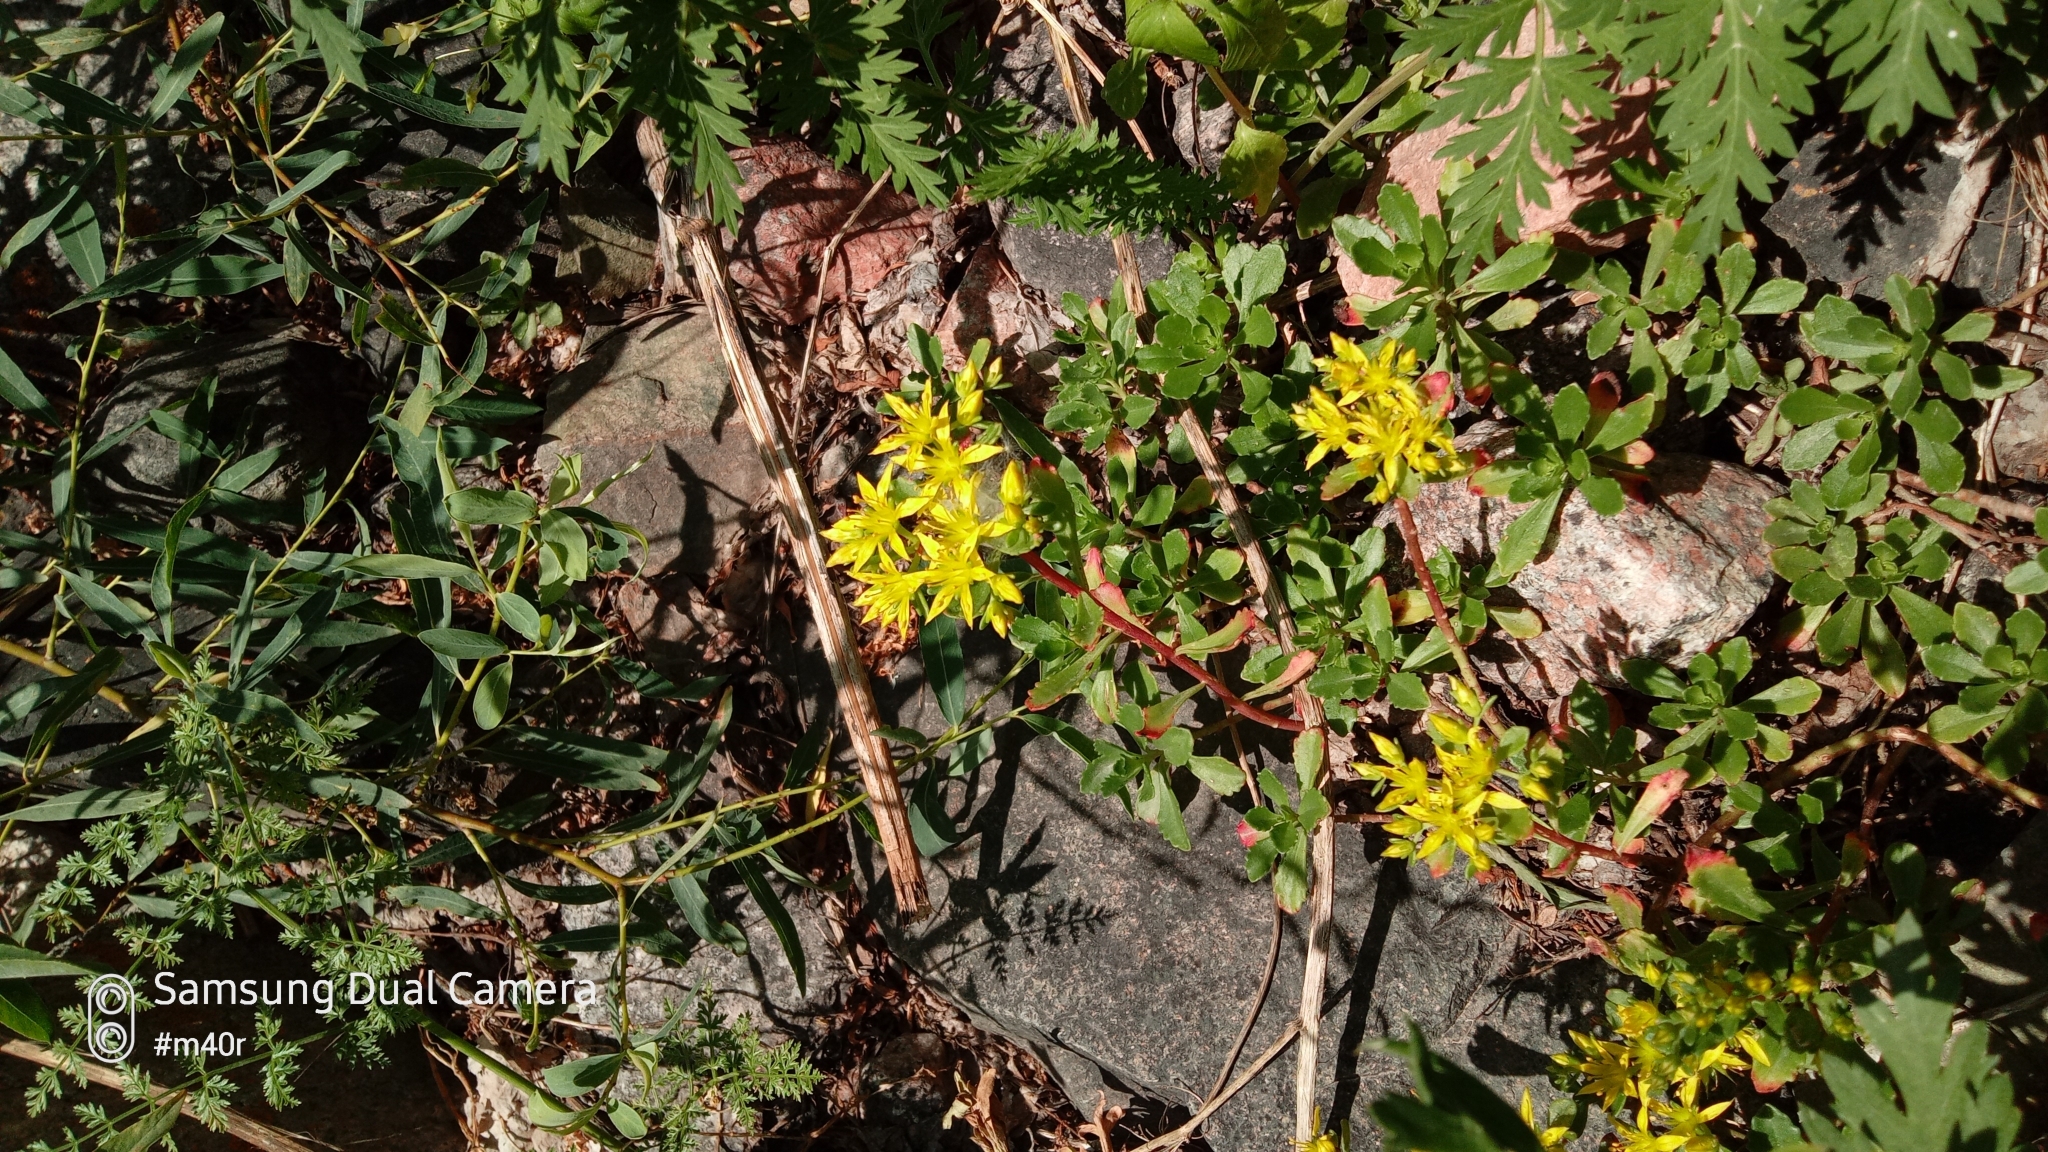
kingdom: Plantae
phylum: Tracheophyta
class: Magnoliopsida
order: Saxifragales
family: Crassulaceae
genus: Phedimus
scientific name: Phedimus hybridus
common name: Hybrid stonecrop
